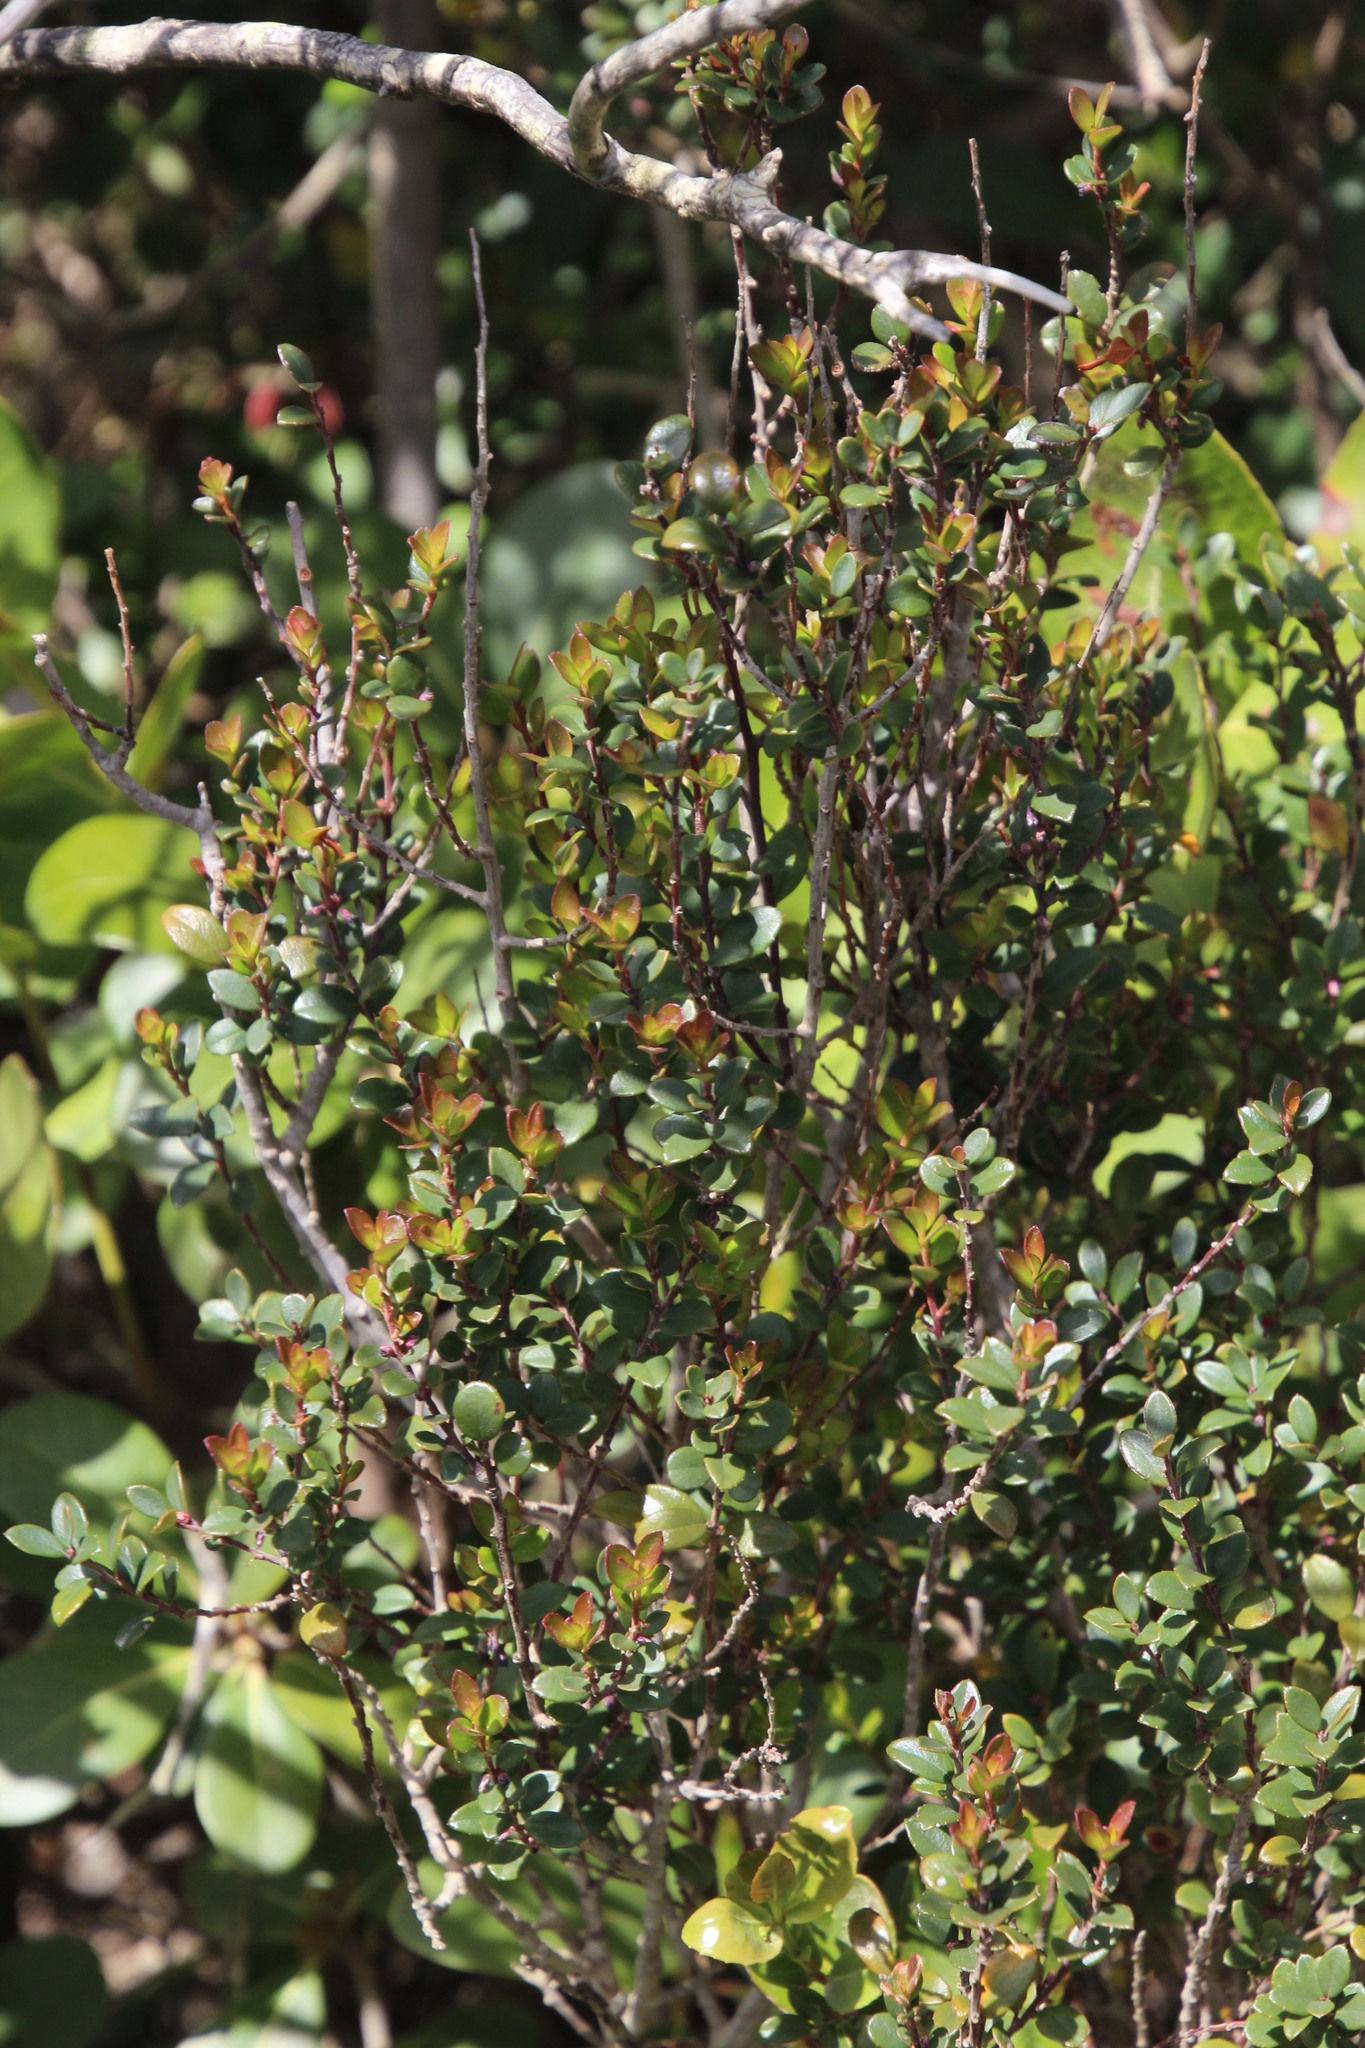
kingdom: Plantae
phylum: Tracheophyta
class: Magnoliopsida
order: Ericales
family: Primulaceae
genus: Myrsine
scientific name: Myrsine africana
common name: African-boxwood
